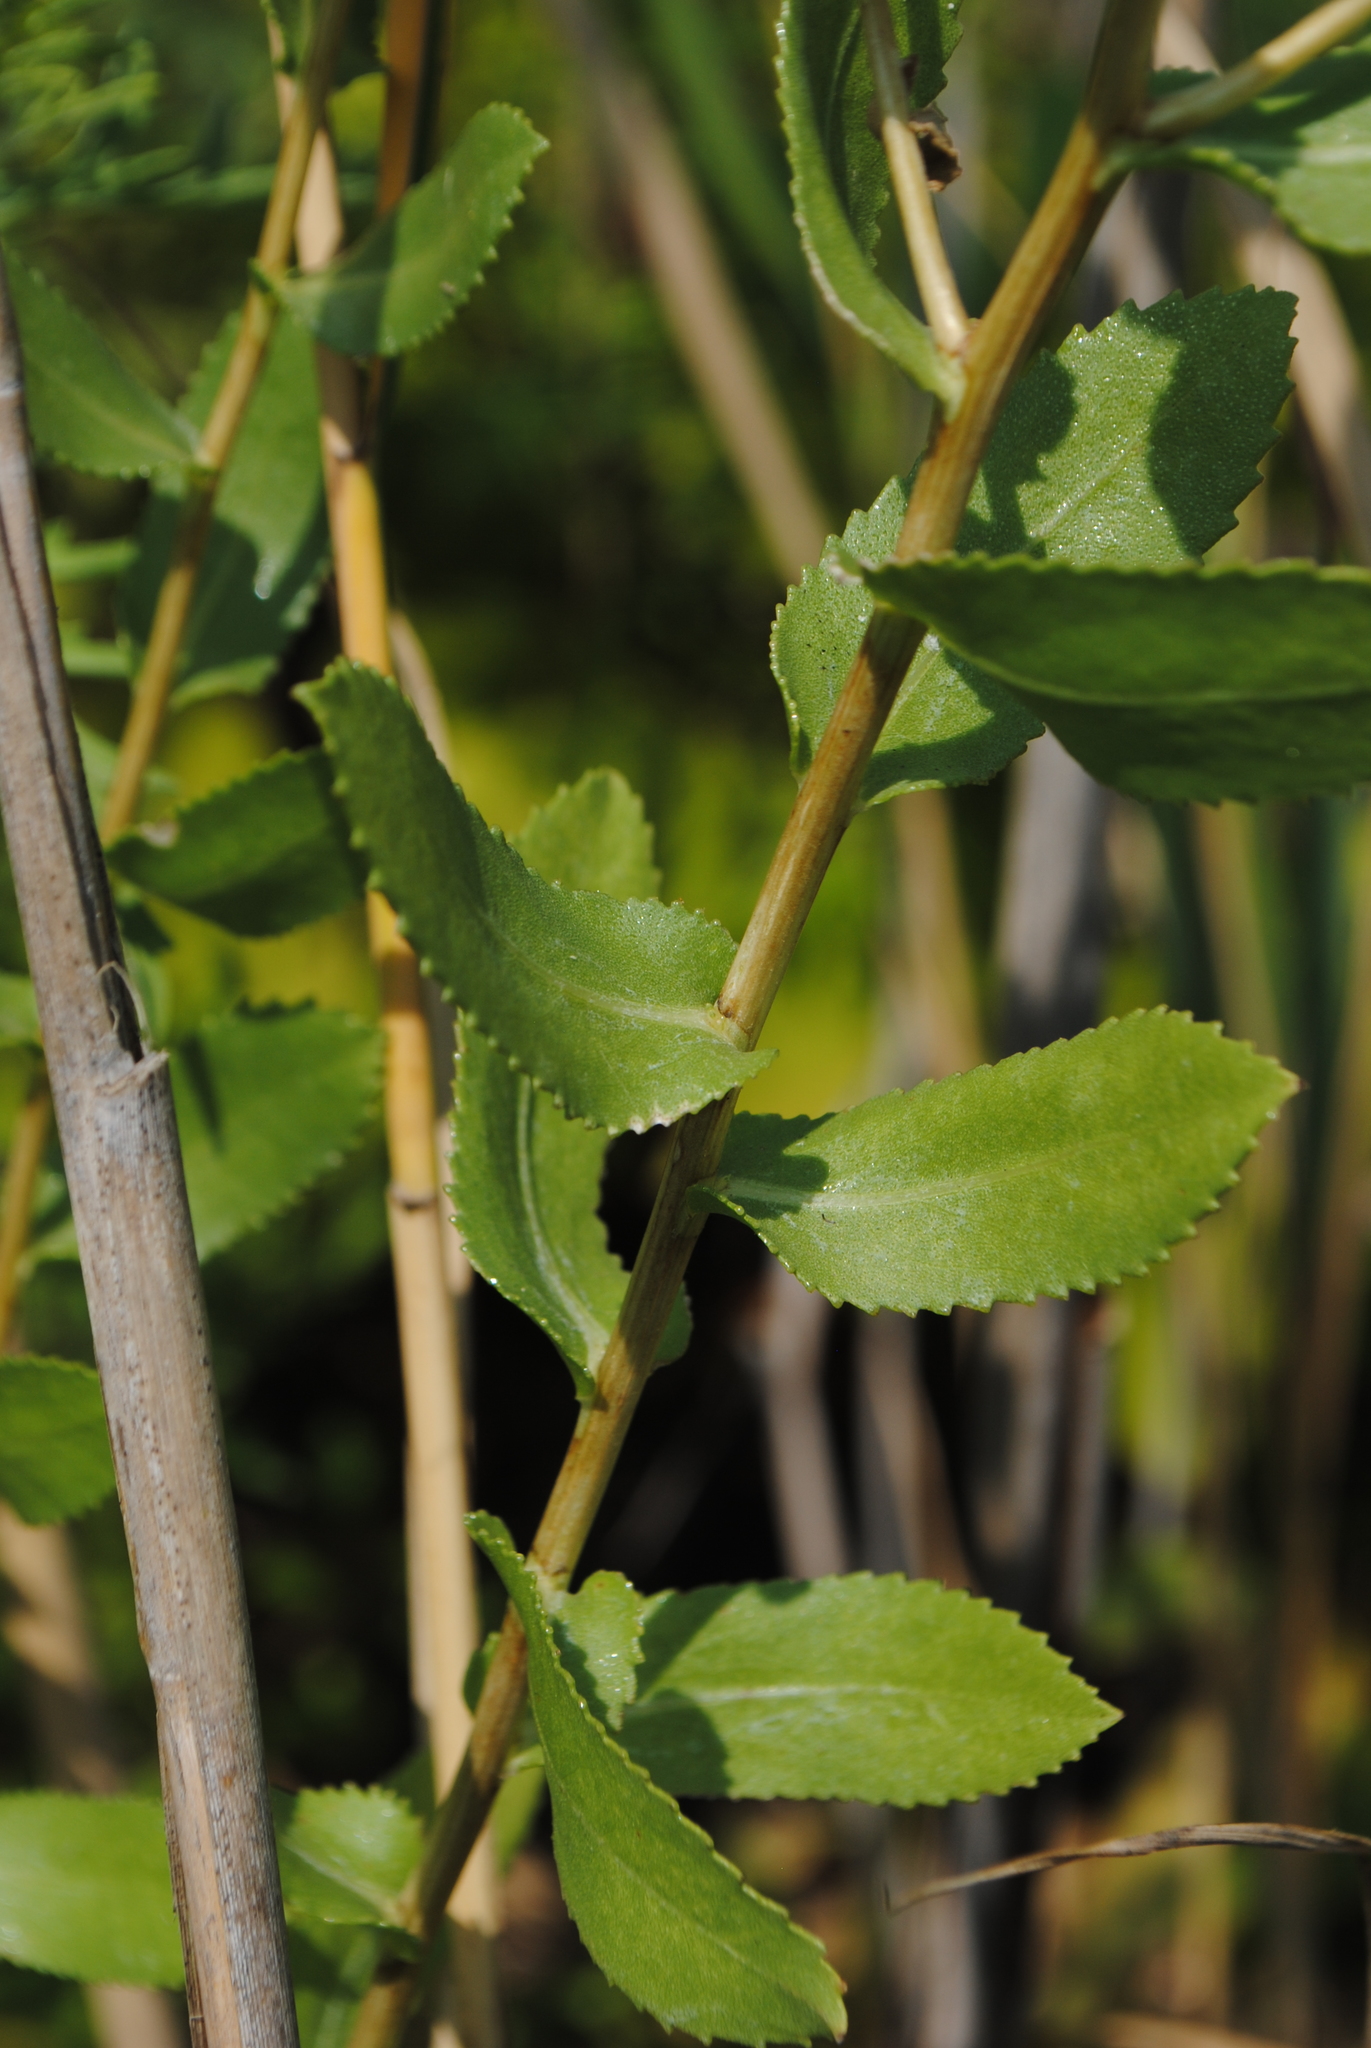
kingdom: Plantae
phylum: Tracheophyta
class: Magnoliopsida
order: Asterales
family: Asteraceae
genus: Grindelia
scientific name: Grindelia squarrosa
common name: Curly-cup gumweed
